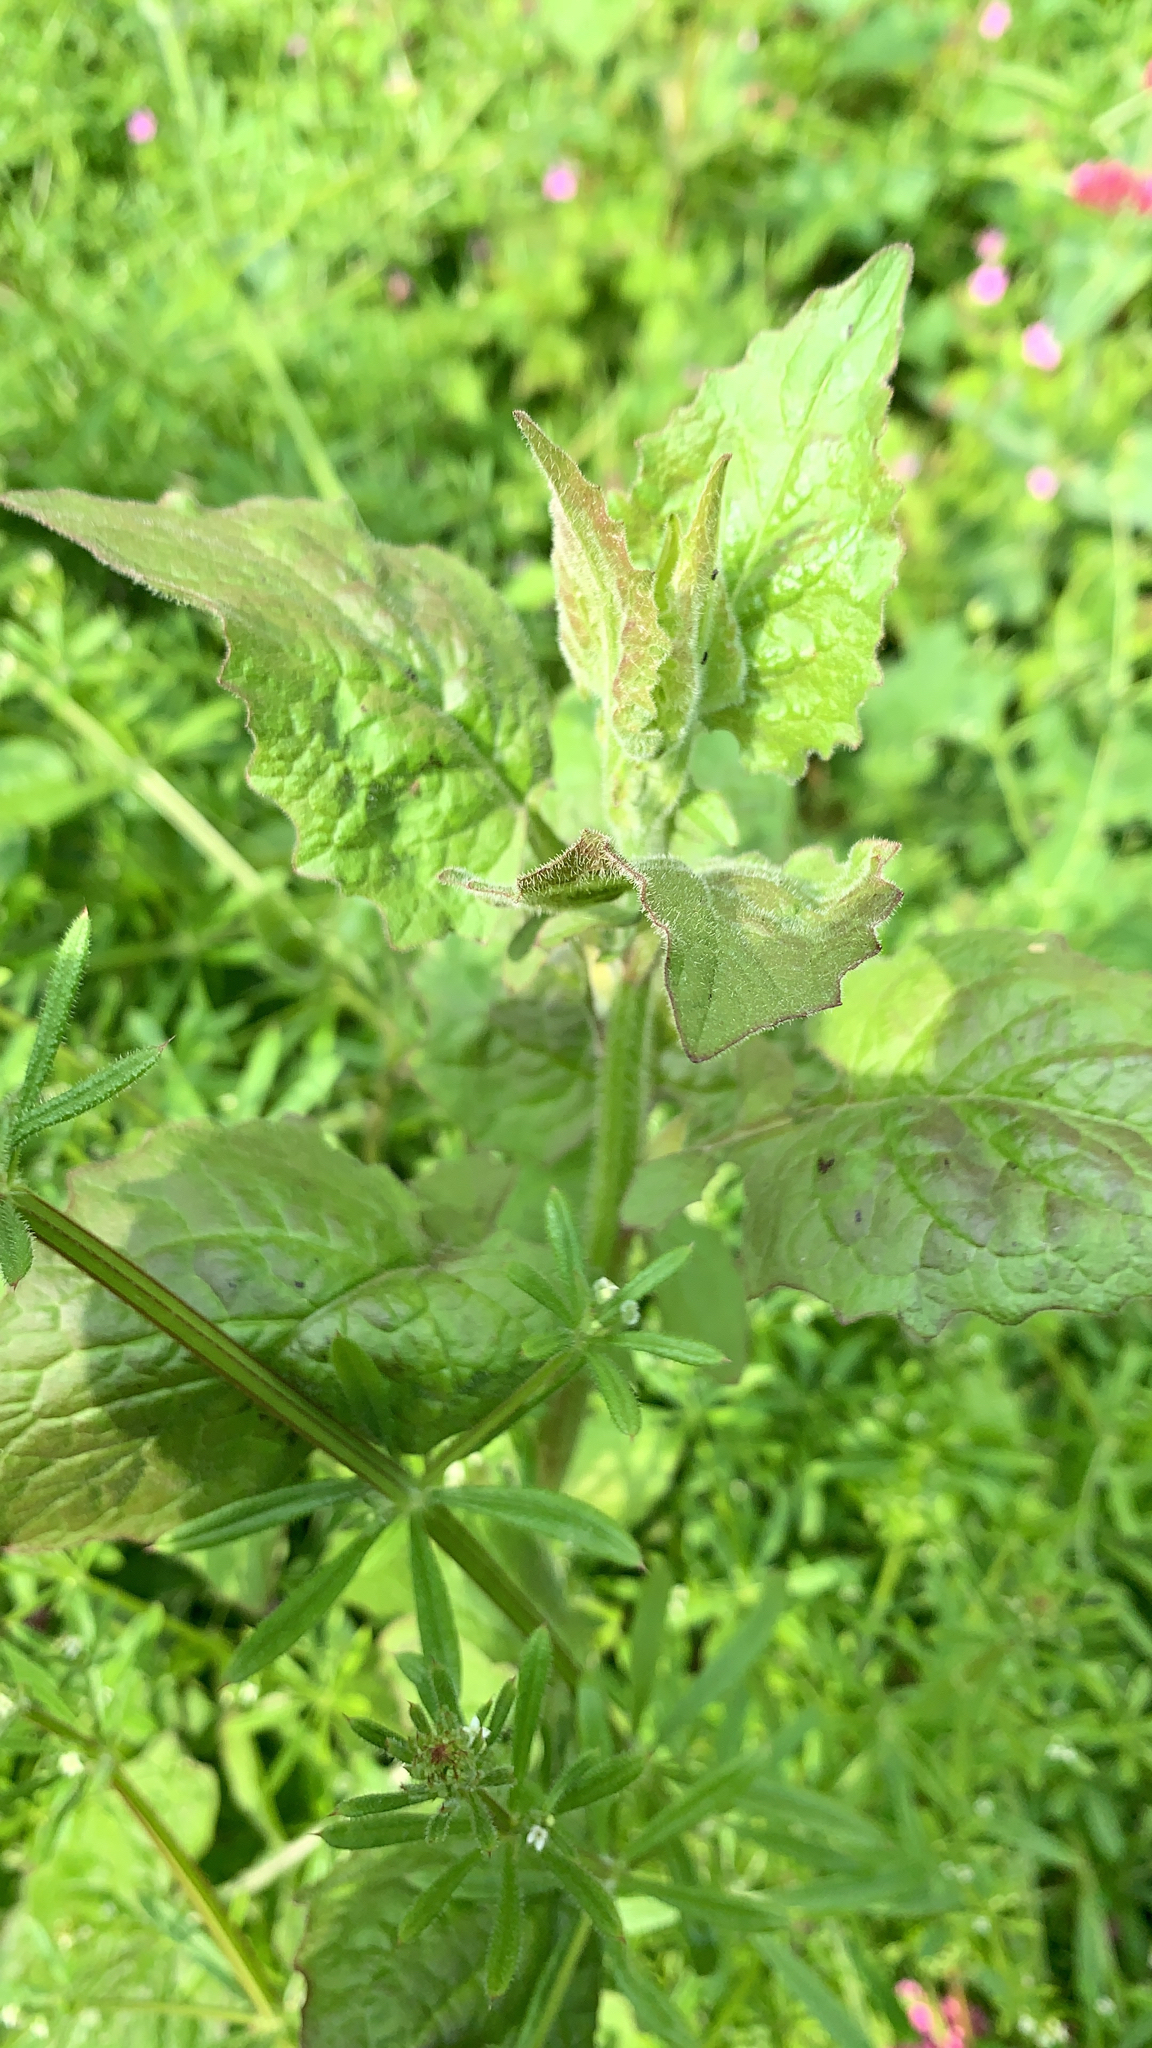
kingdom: Plantae
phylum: Tracheophyta
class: Magnoliopsida
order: Asterales
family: Asteraceae
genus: Lapsana
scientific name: Lapsana communis
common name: Nipplewort
